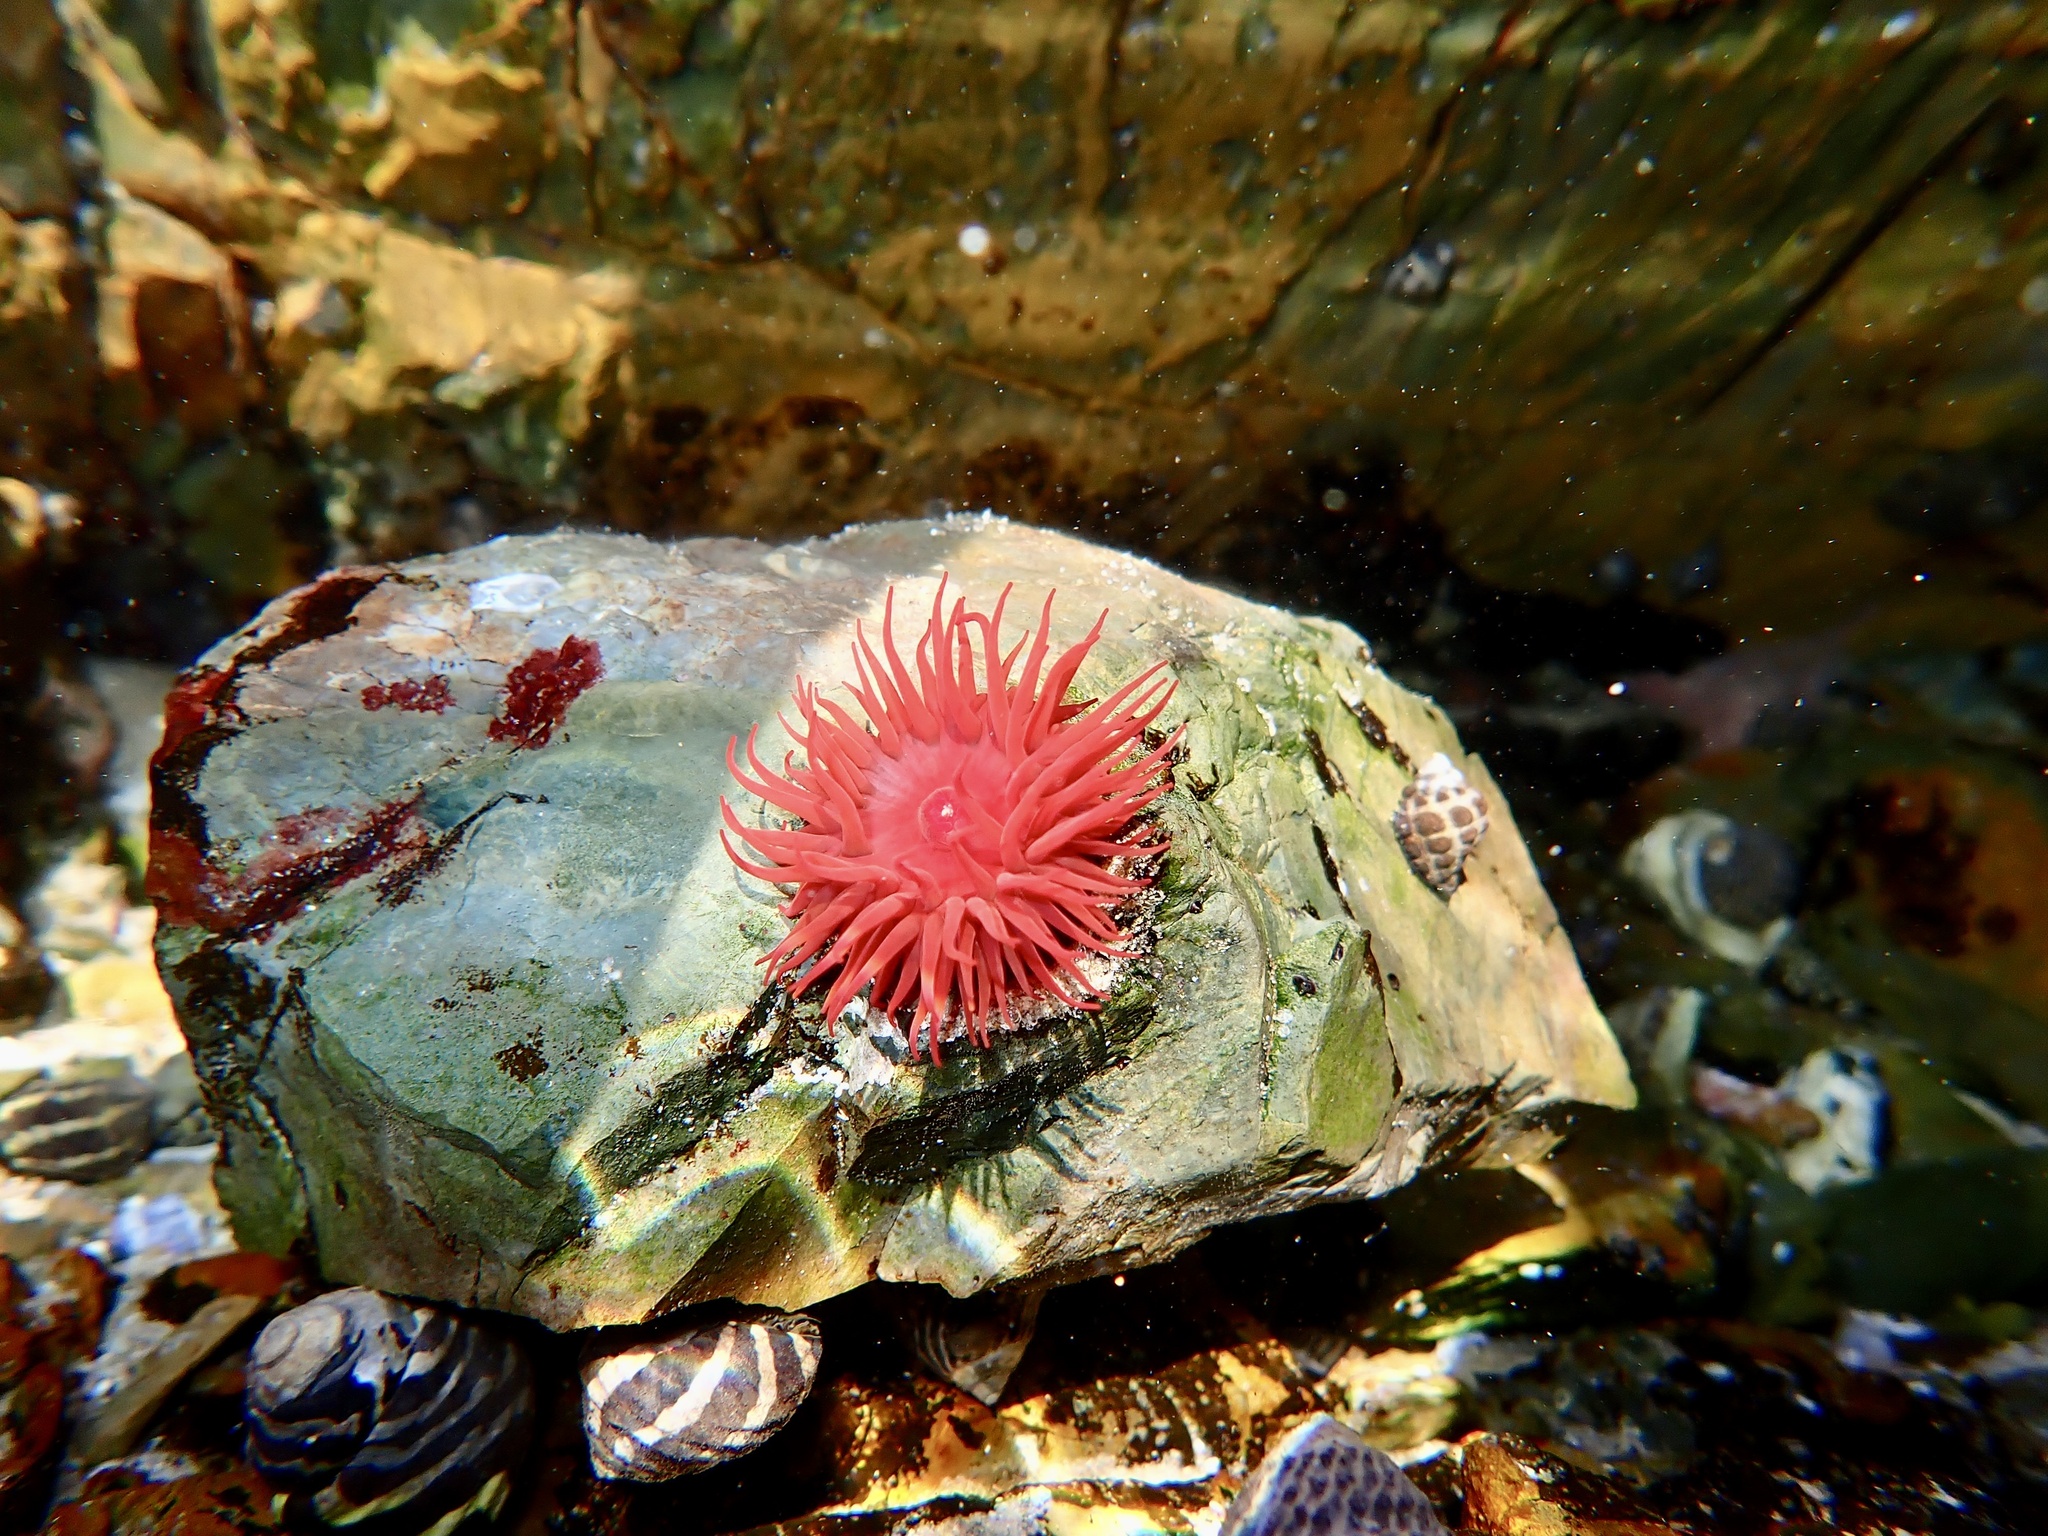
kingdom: Animalia
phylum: Cnidaria
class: Anthozoa
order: Actiniaria
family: Actiniidae
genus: Actinia
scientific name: Actinia tenebrosa
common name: Waratah anemone
